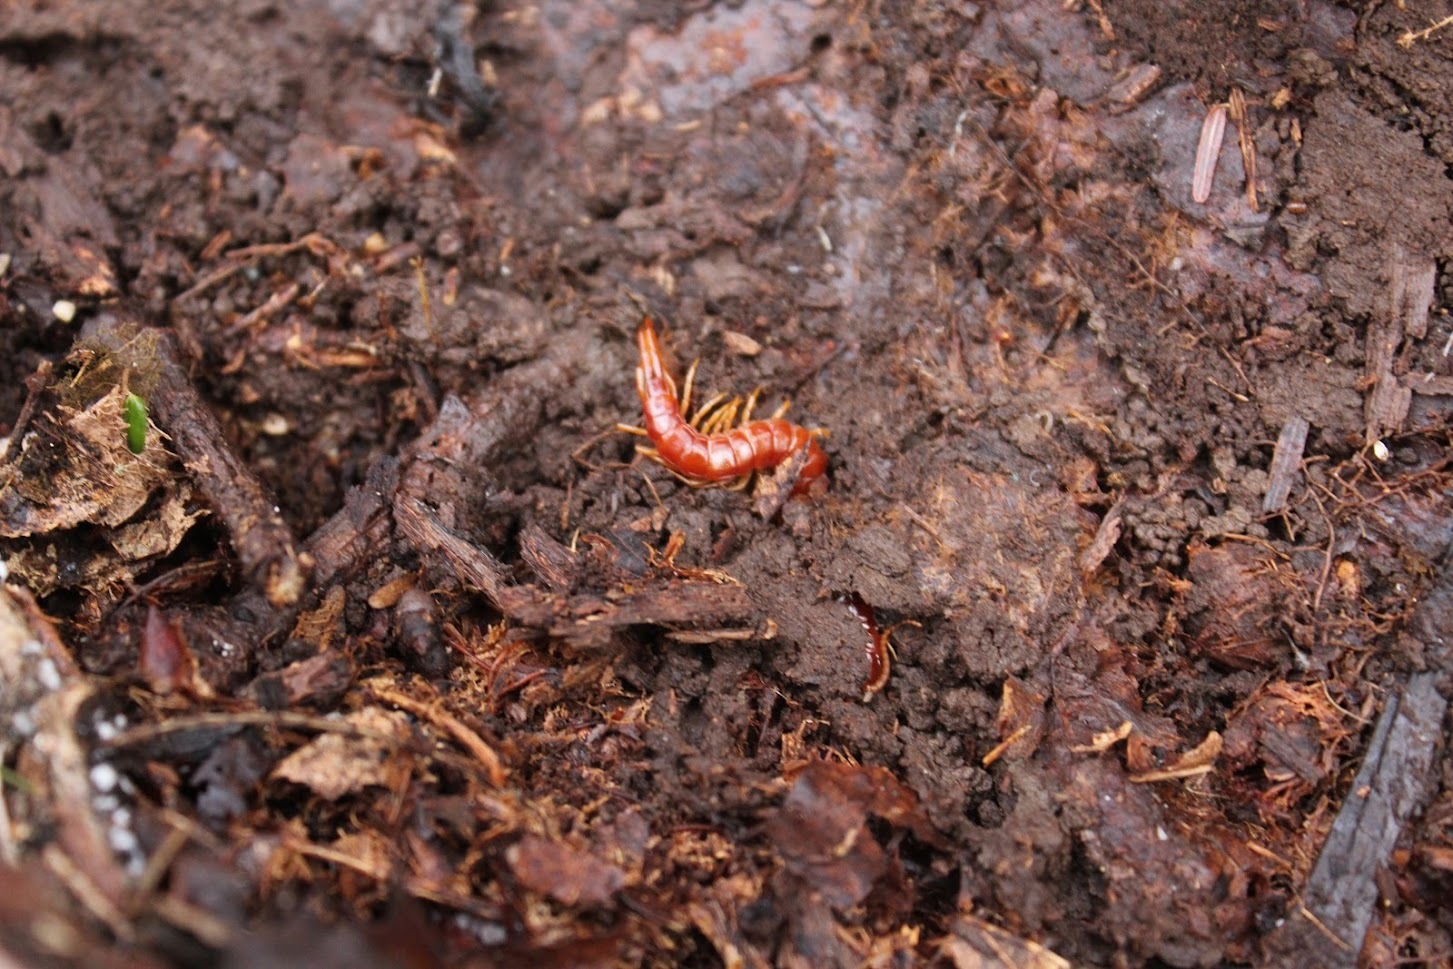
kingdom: Animalia
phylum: Arthropoda
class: Chilopoda
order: Scolopendromorpha
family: Scolopocryptopidae
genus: Scolopocryptops
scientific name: Scolopocryptops sexspinosus
